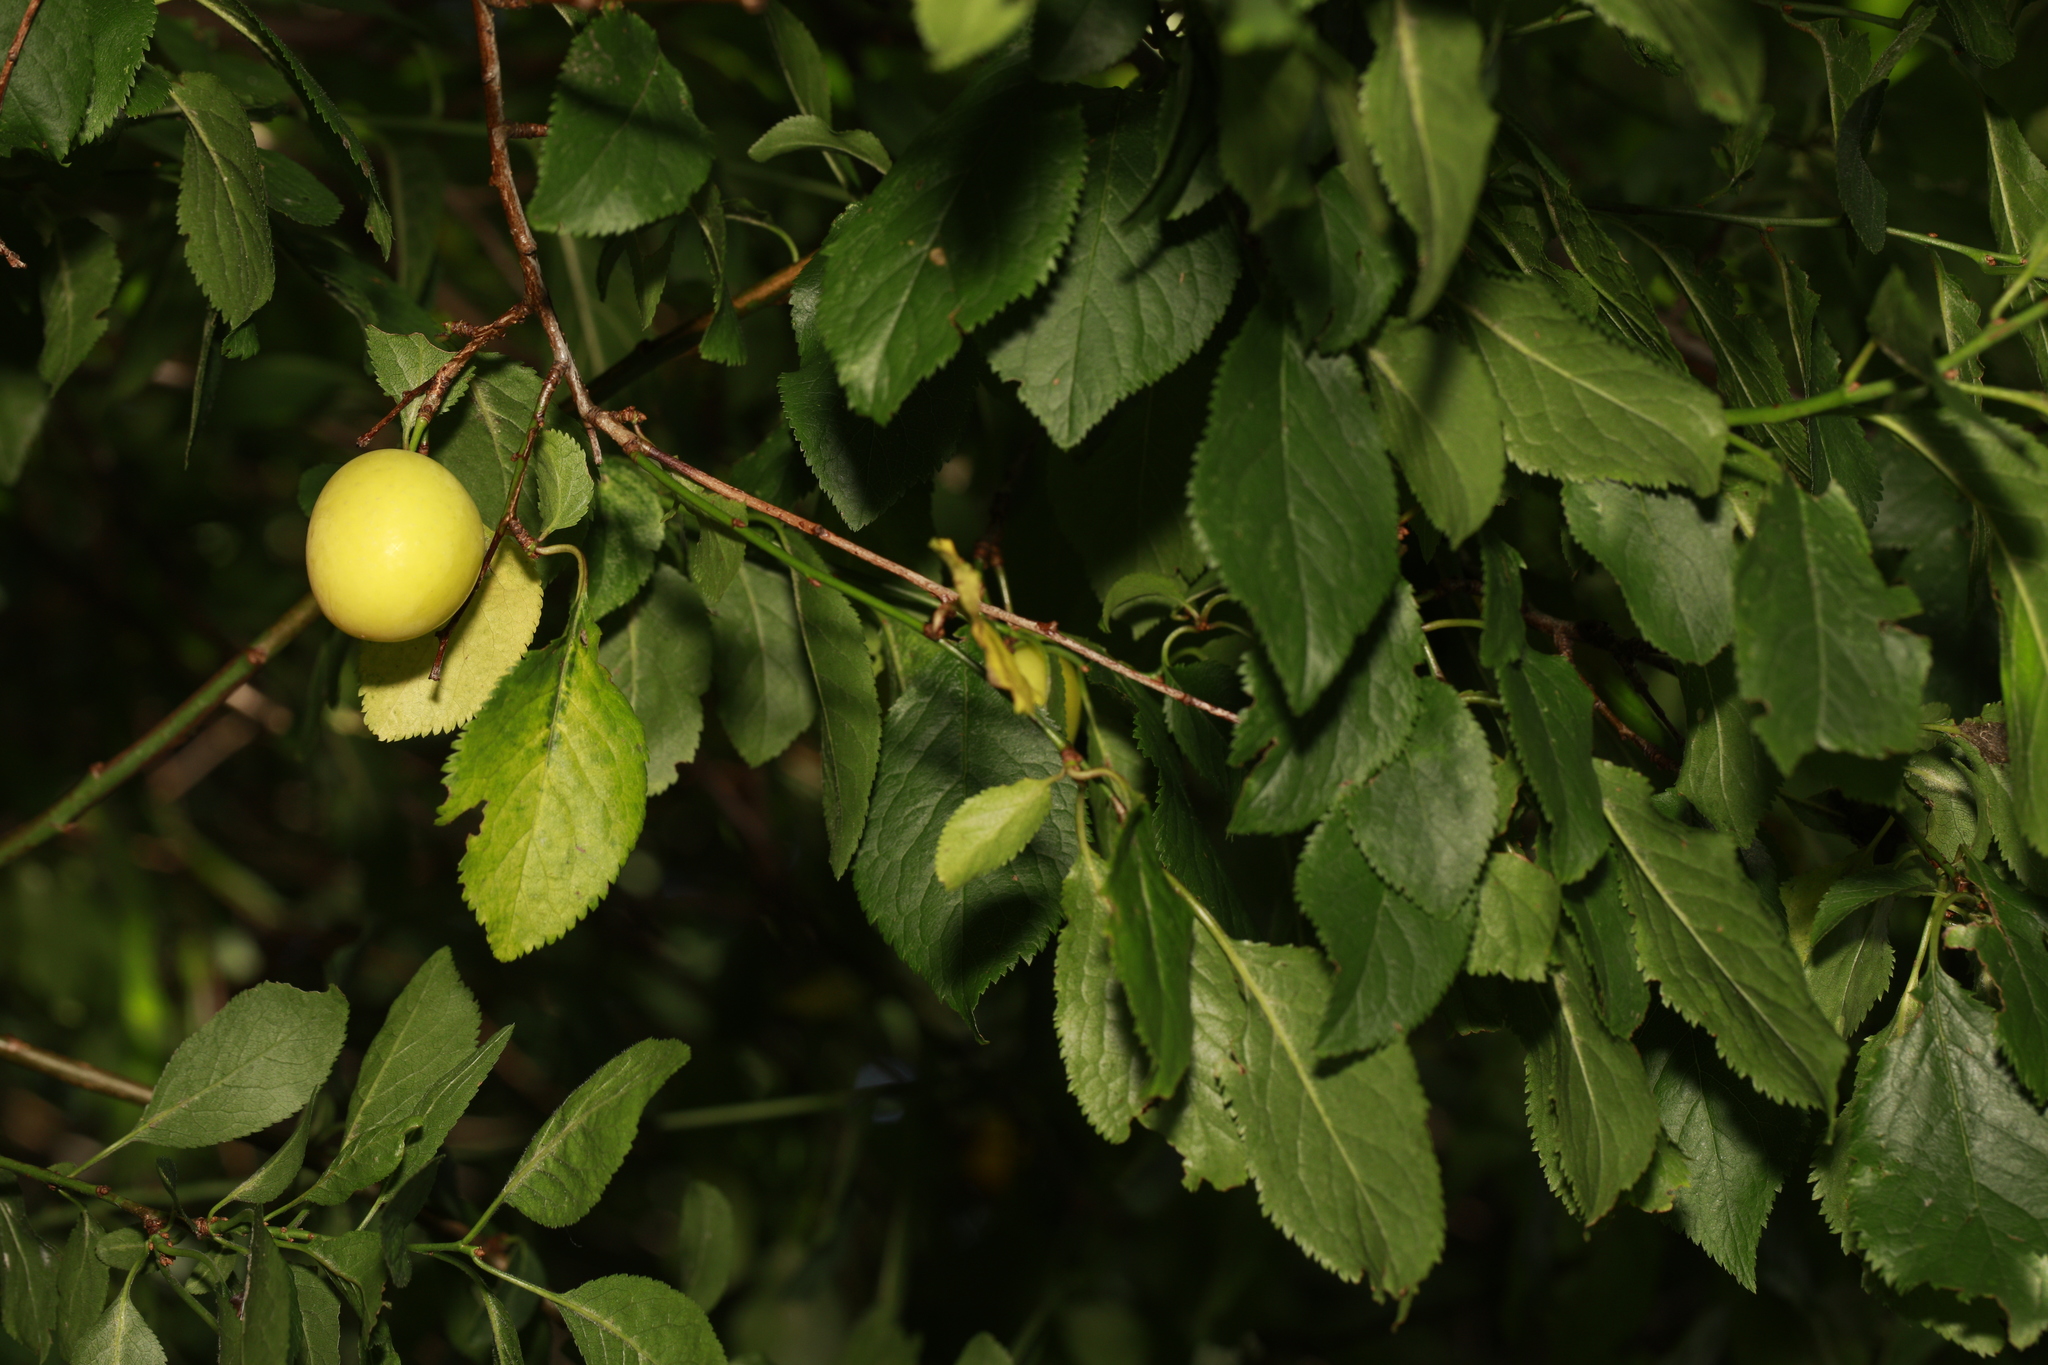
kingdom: Plantae
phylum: Tracheophyta
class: Magnoliopsida
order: Rosales
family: Rosaceae
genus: Prunus
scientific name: Prunus cerasifera
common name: Cherry plum
